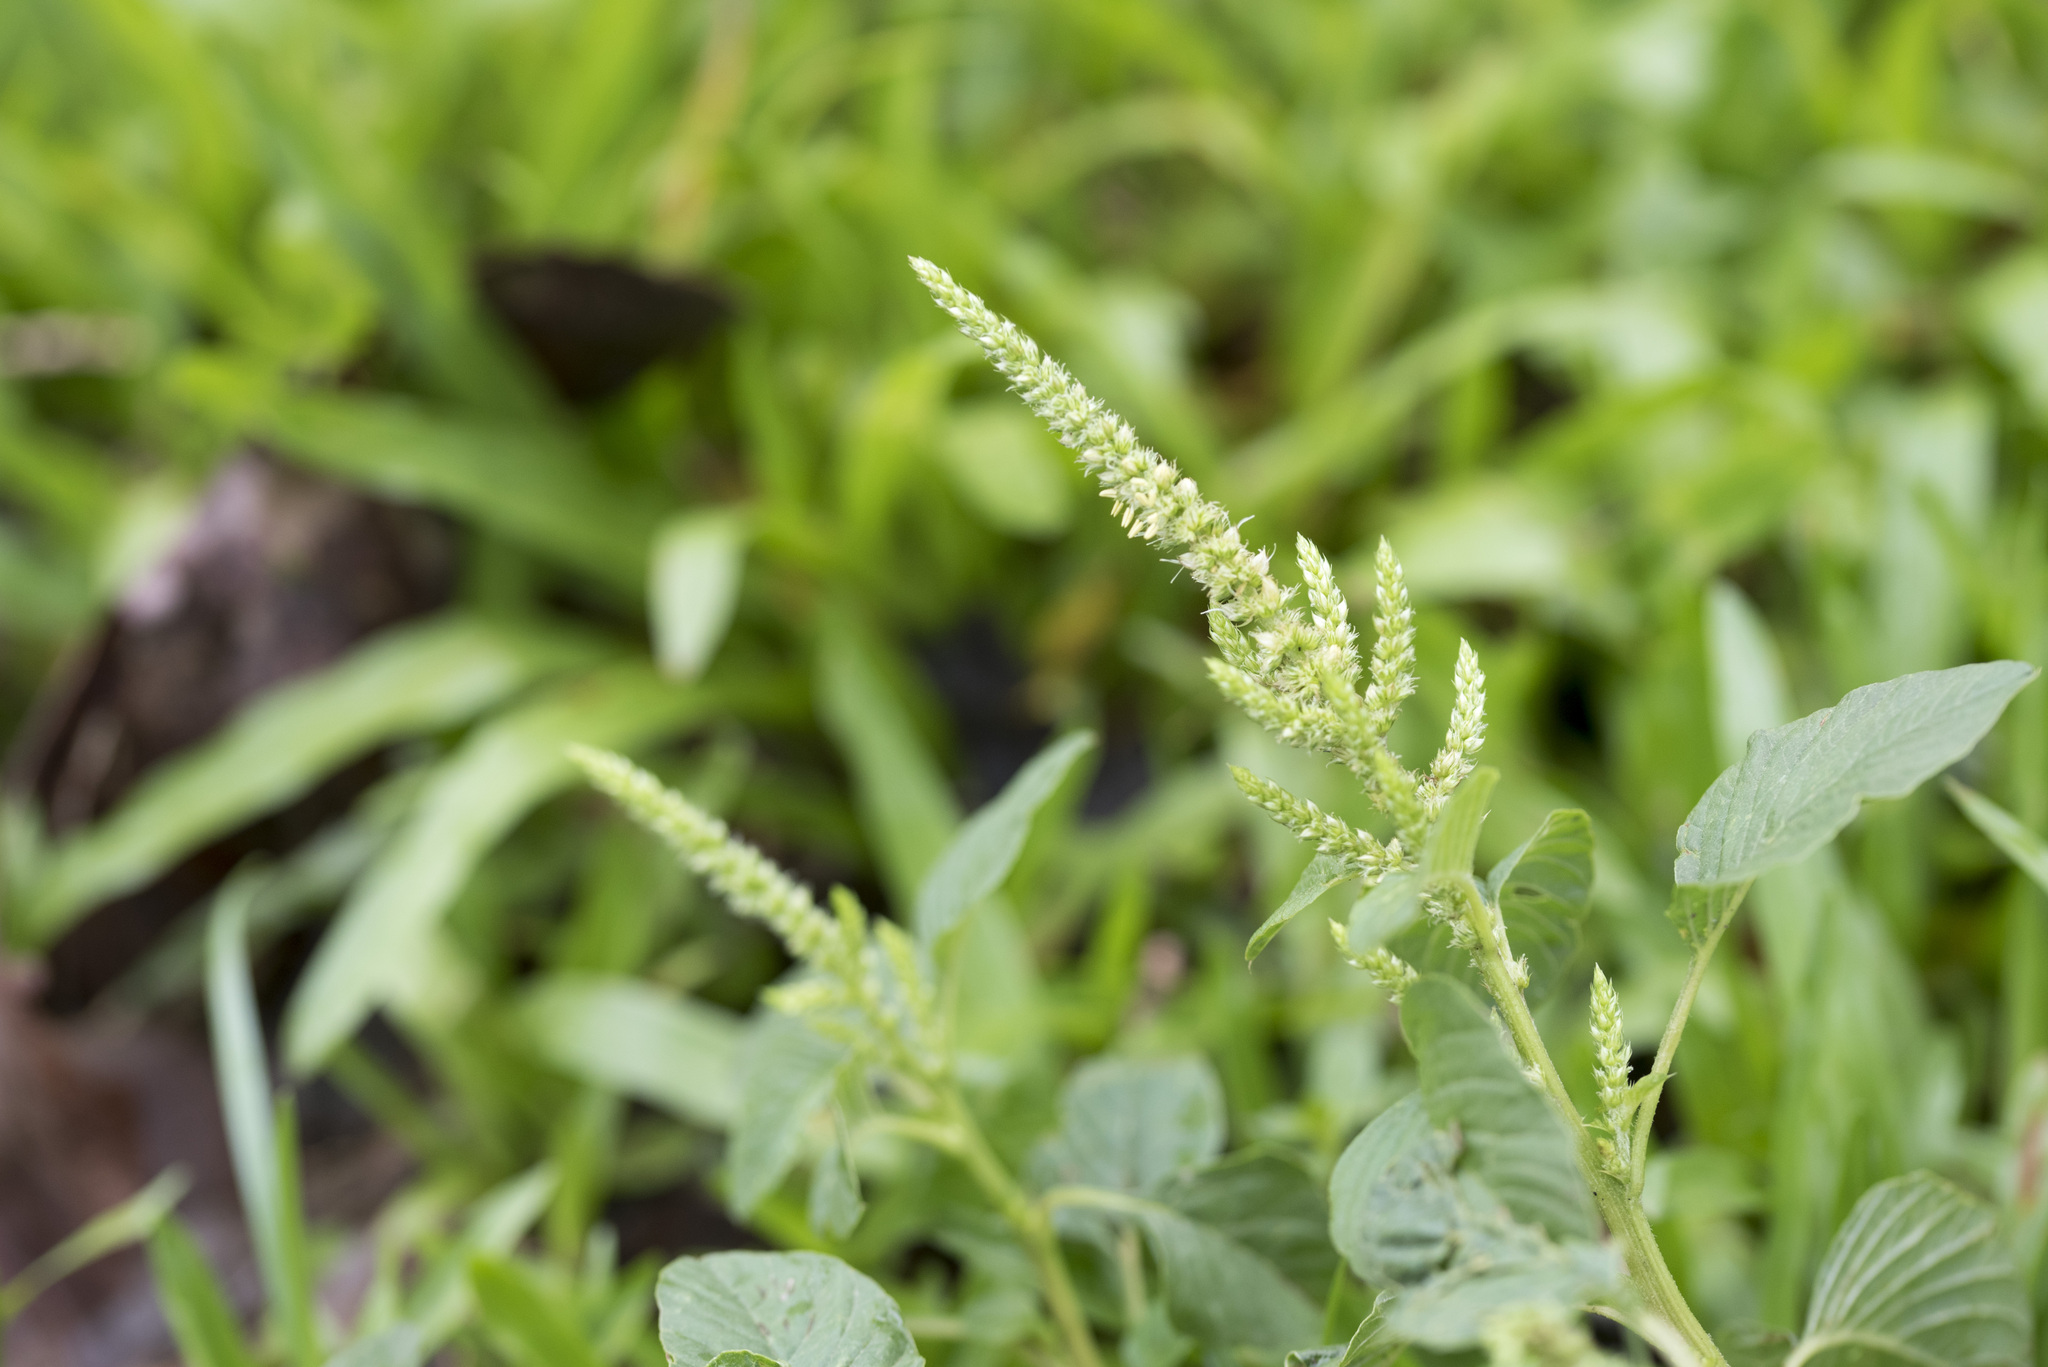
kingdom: Plantae
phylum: Tracheophyta
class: Magnoliopsida
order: Caryophyllales
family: Amaranthaceae
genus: Amaranthus
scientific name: Amaranthus viridis
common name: Slender amaranth
